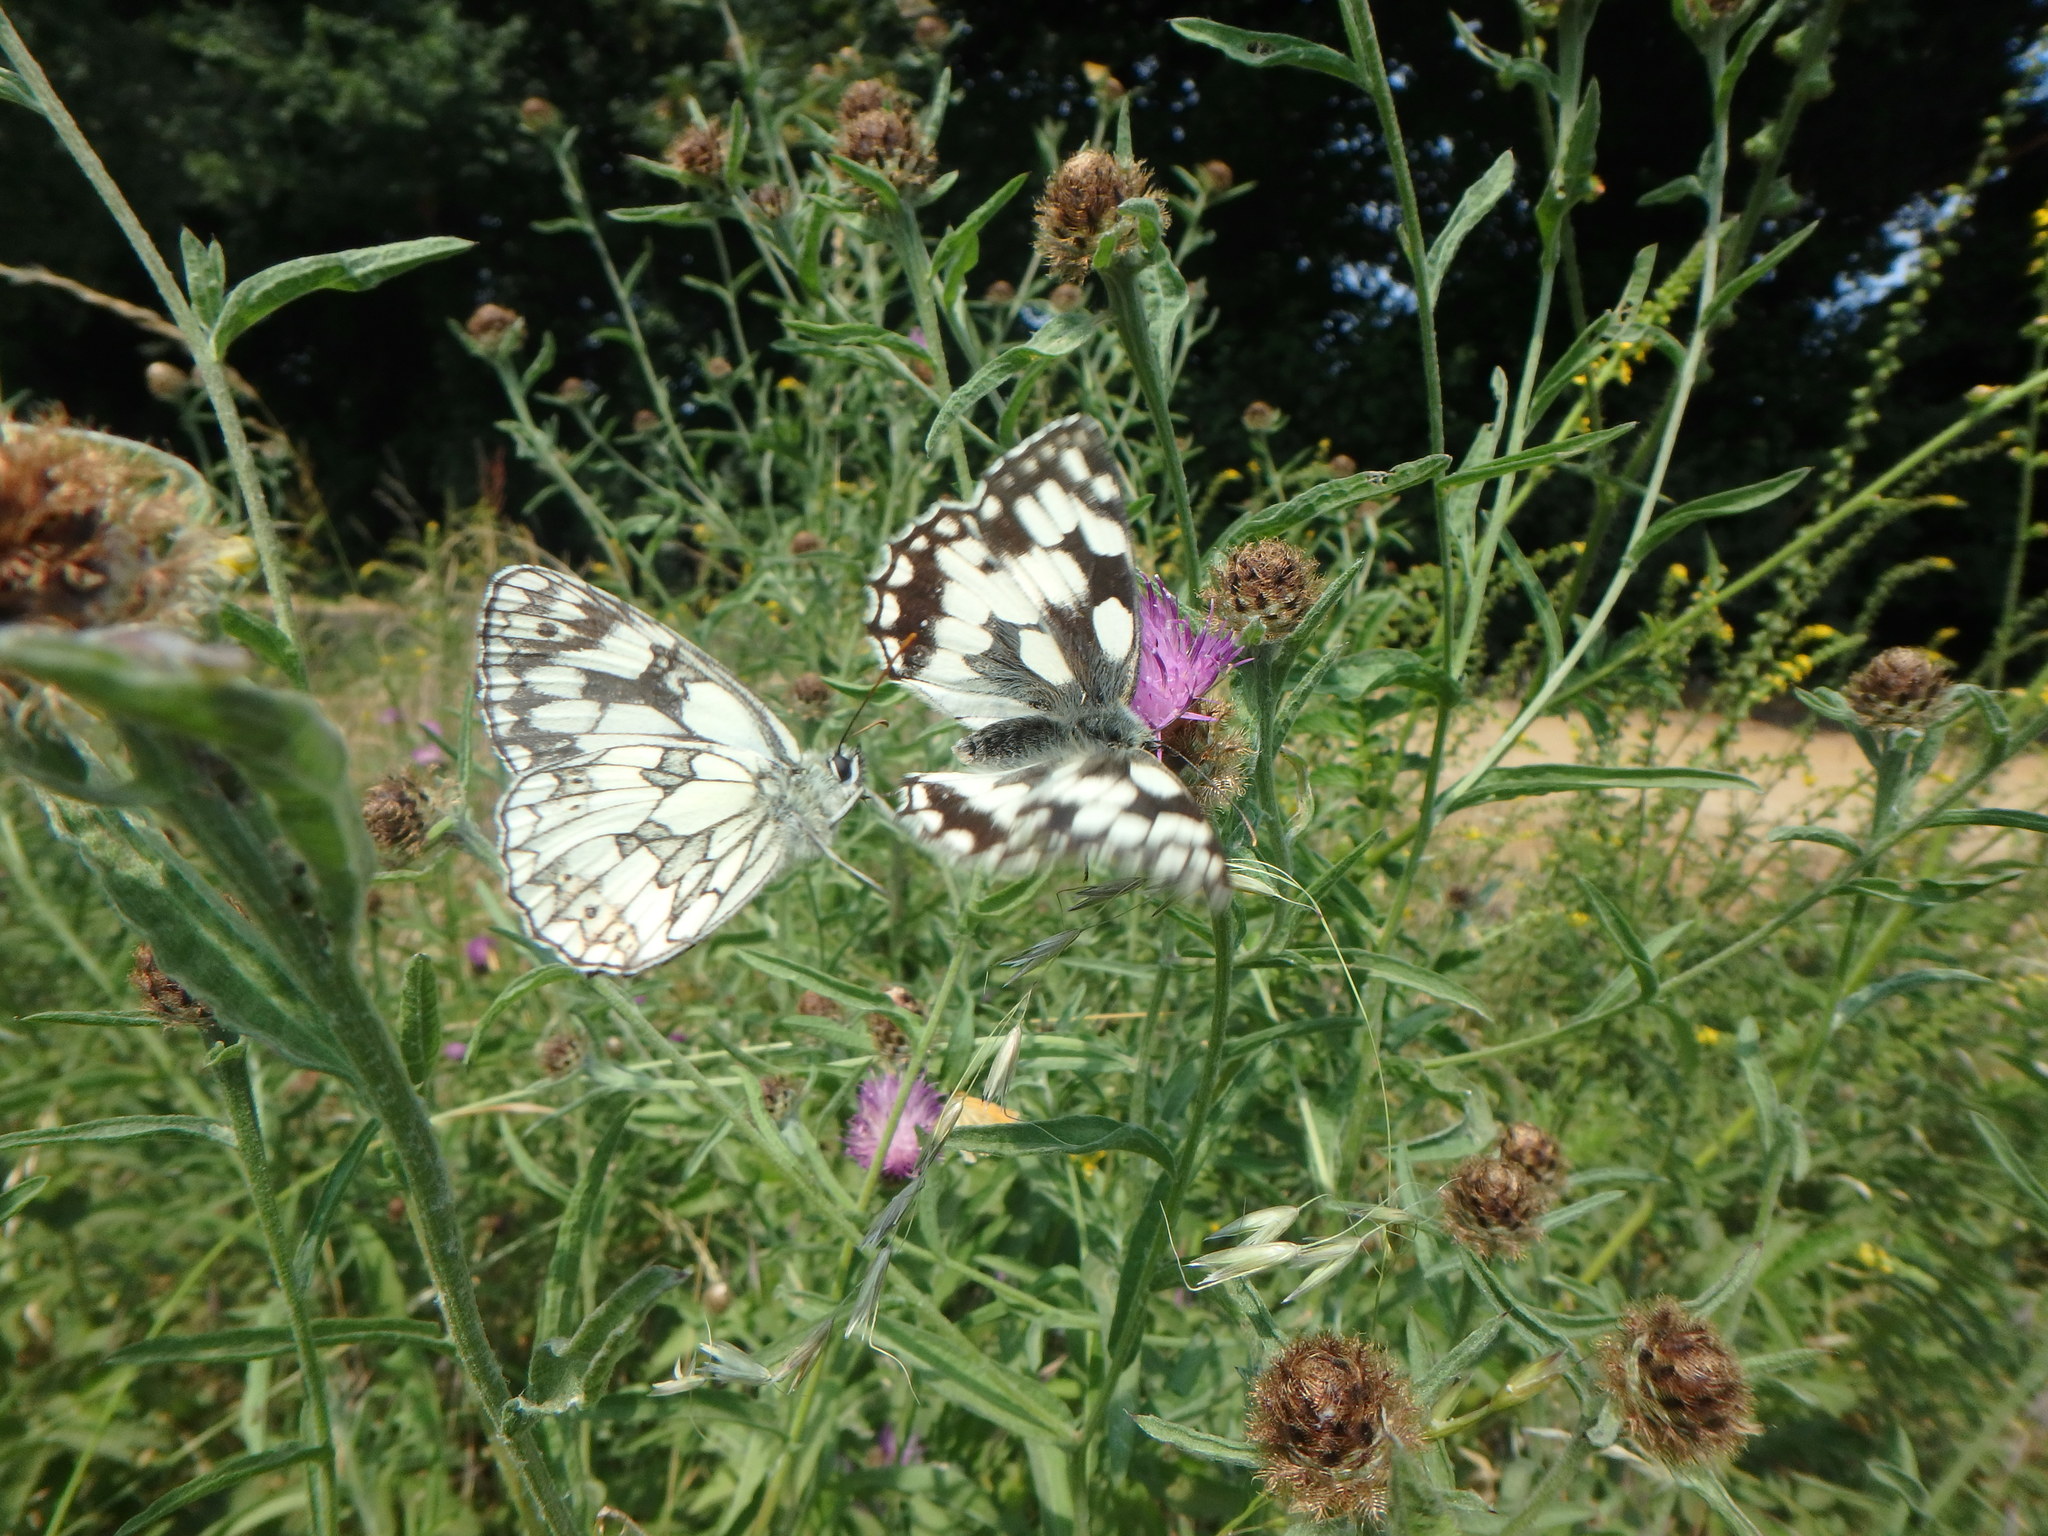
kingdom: Animalia
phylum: Arthropoda
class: Insecta
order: Lepidoptera
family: Nymphalidae
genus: Melanargia
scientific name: Melanargia galathea
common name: Marbled white
